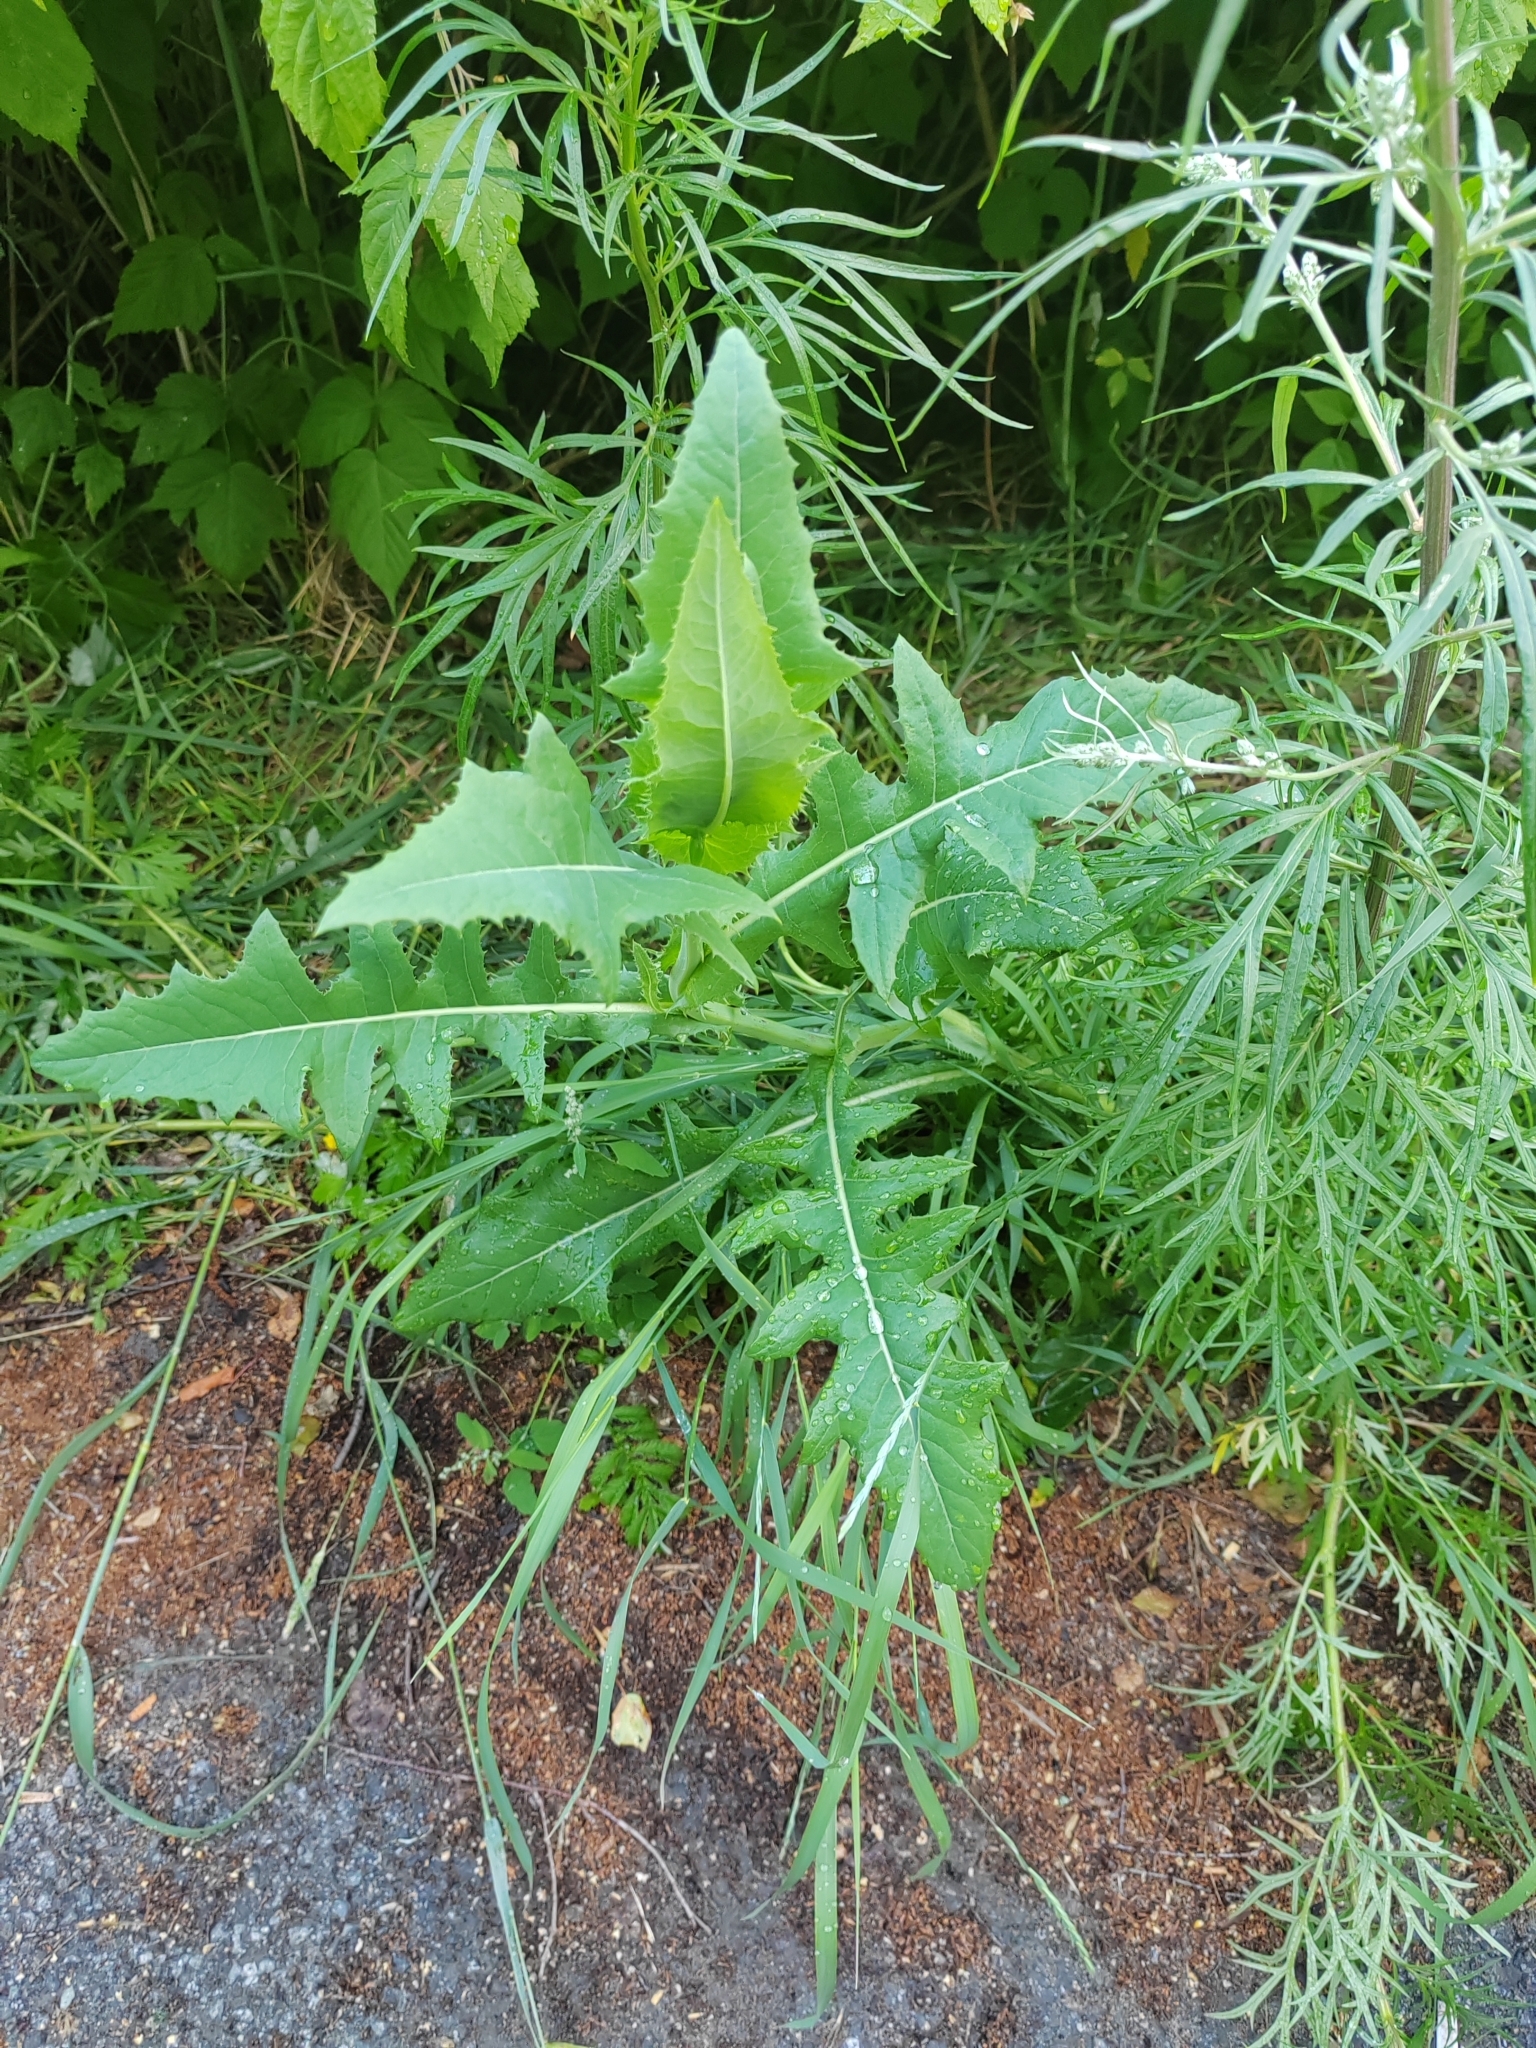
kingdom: Plantae
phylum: Tracheophyta
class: Magnoliopsida
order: Asterales
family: Asteraceae
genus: Sonchus
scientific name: Sonchus arvensis
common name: Perennial sow-thistle
